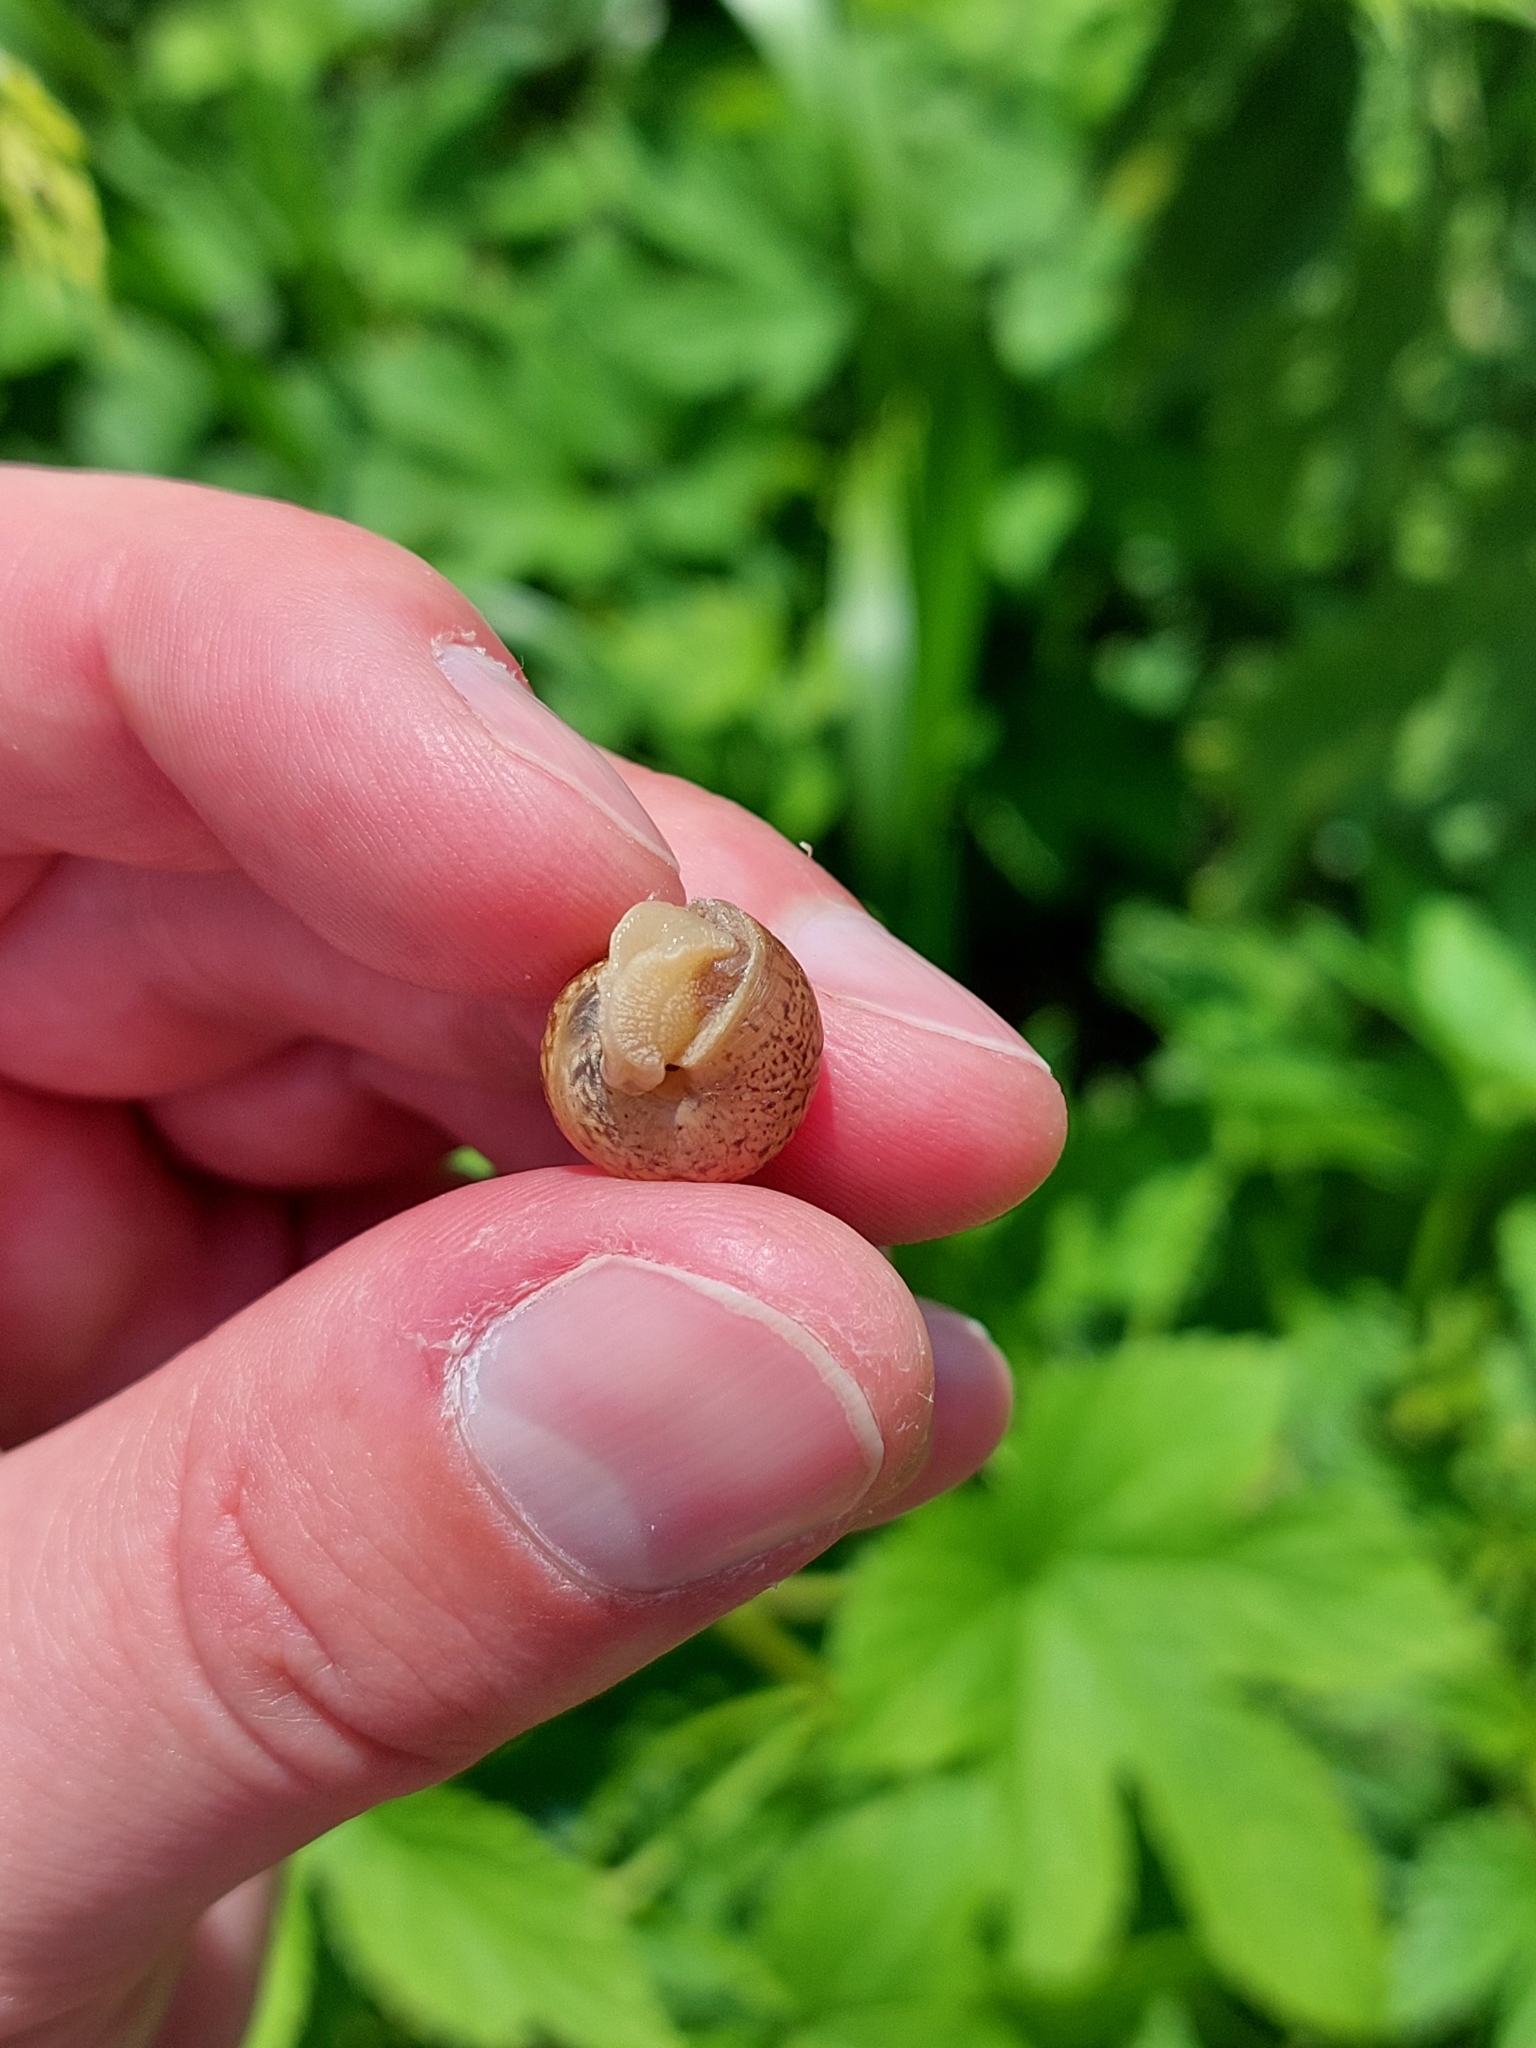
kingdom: Animalia
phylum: Mollusca
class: Gastropoda
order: Stylommatophora
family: Camaenidae
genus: Fruticicola
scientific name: Fruticicola fruticum
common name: Bush snail
